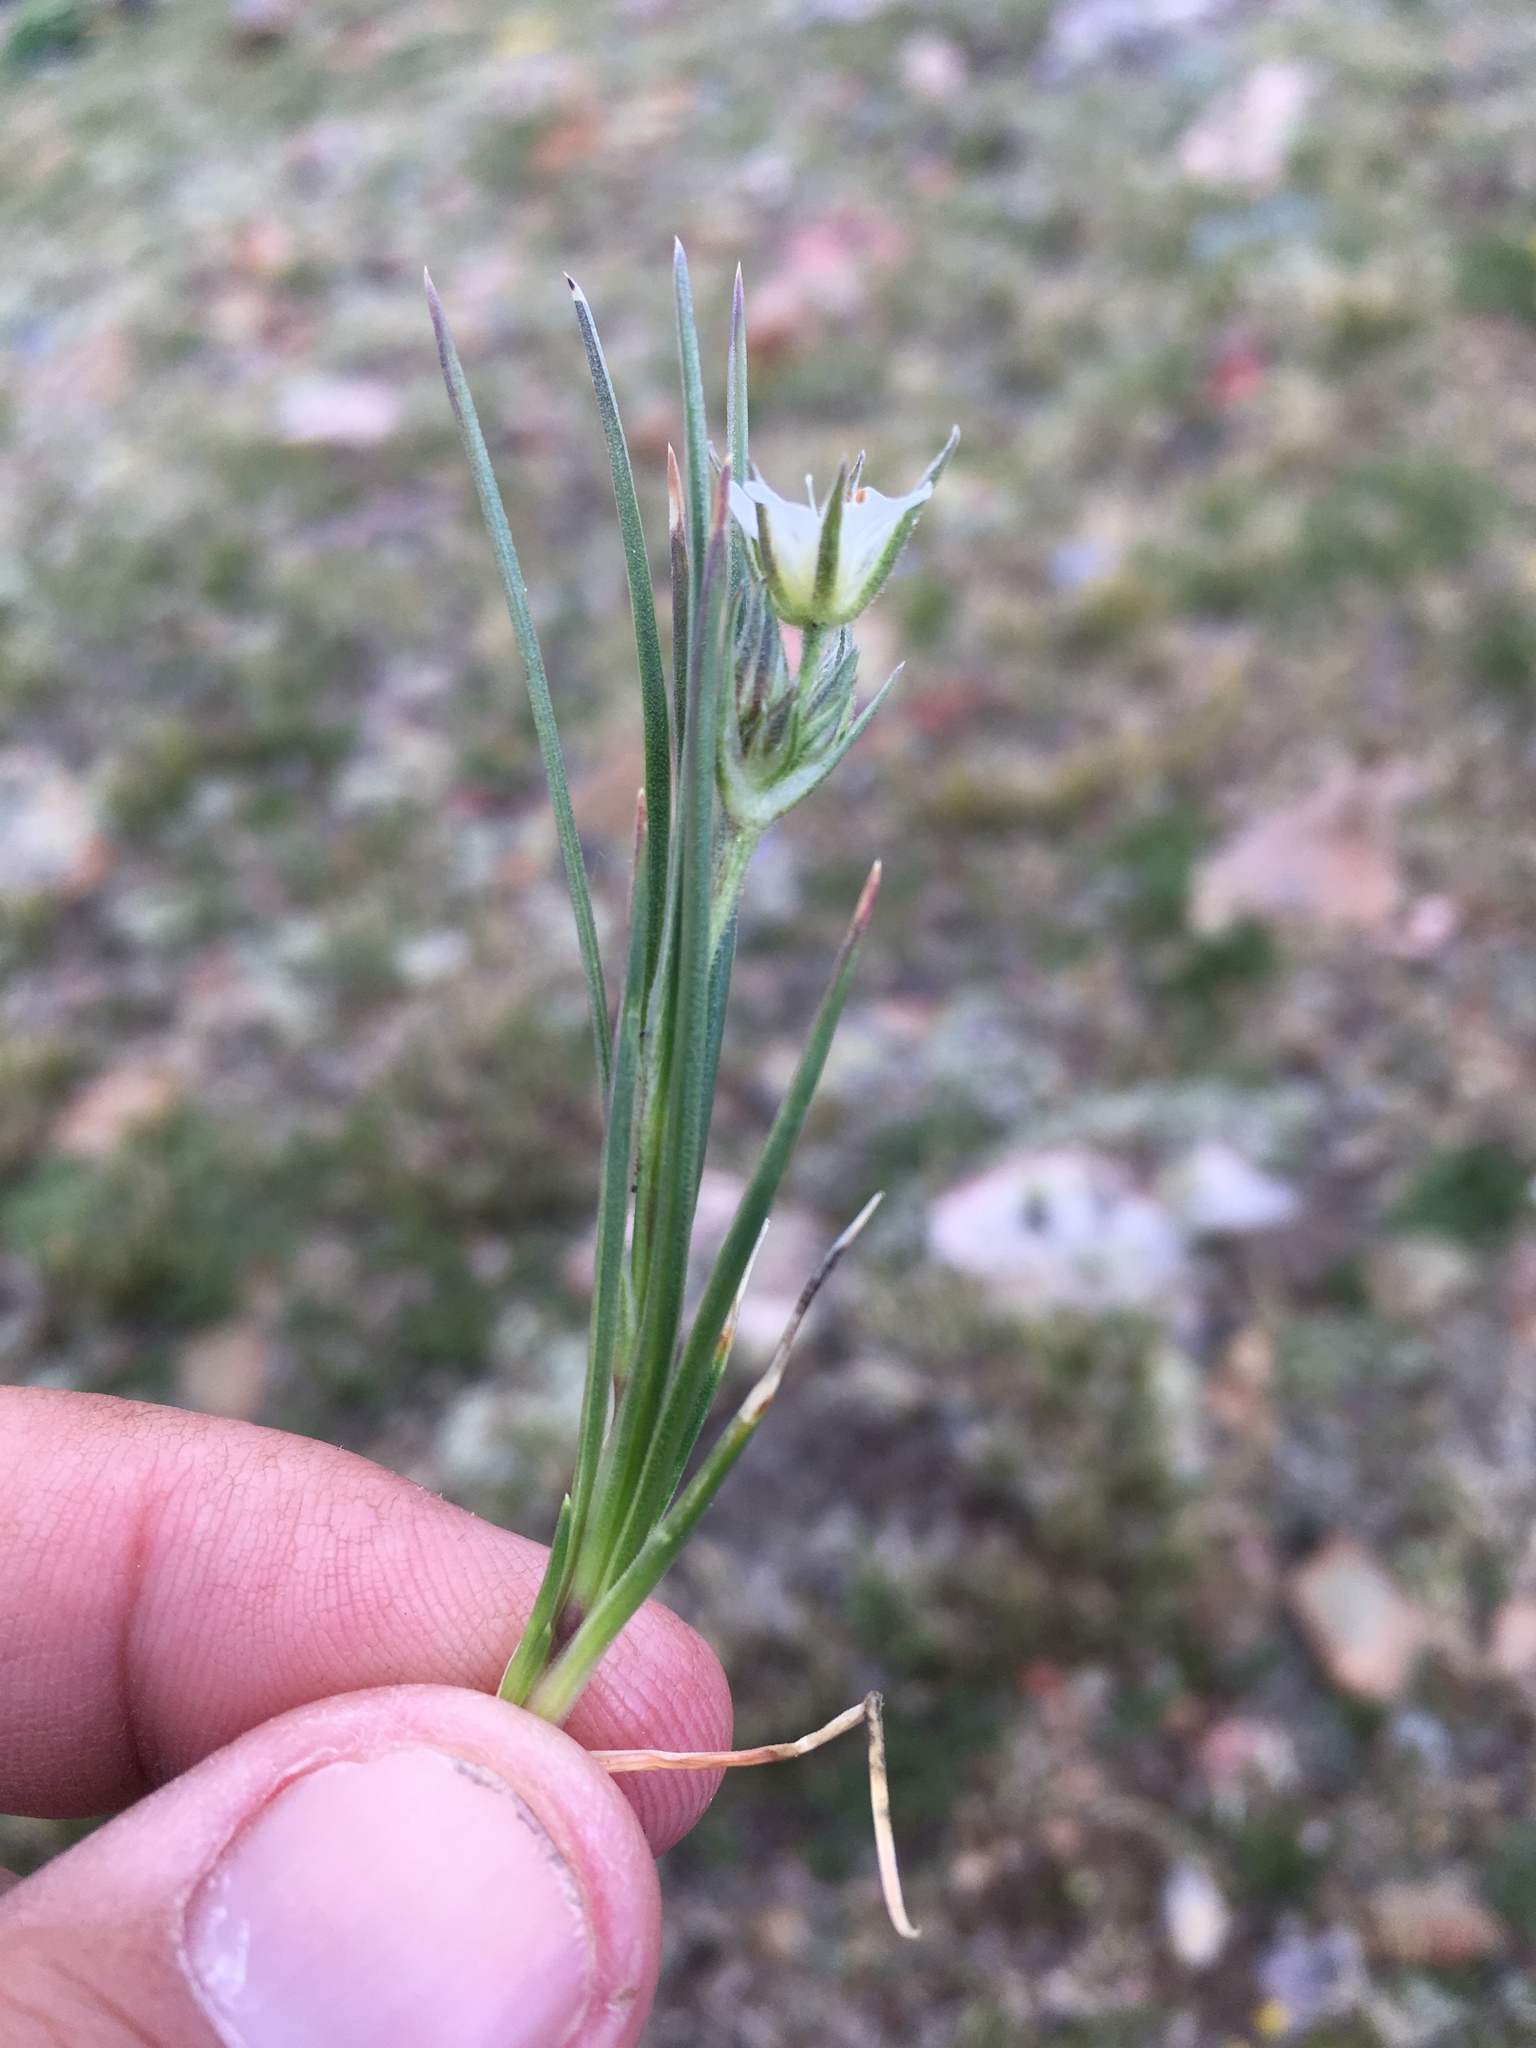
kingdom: Plantae
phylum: Tracheophyta
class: Magnoliopsida
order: Caryophyllales
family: Caryophyllaceae
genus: Eremogone
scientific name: Eremogone fendleri
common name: Fendler's sandwort
